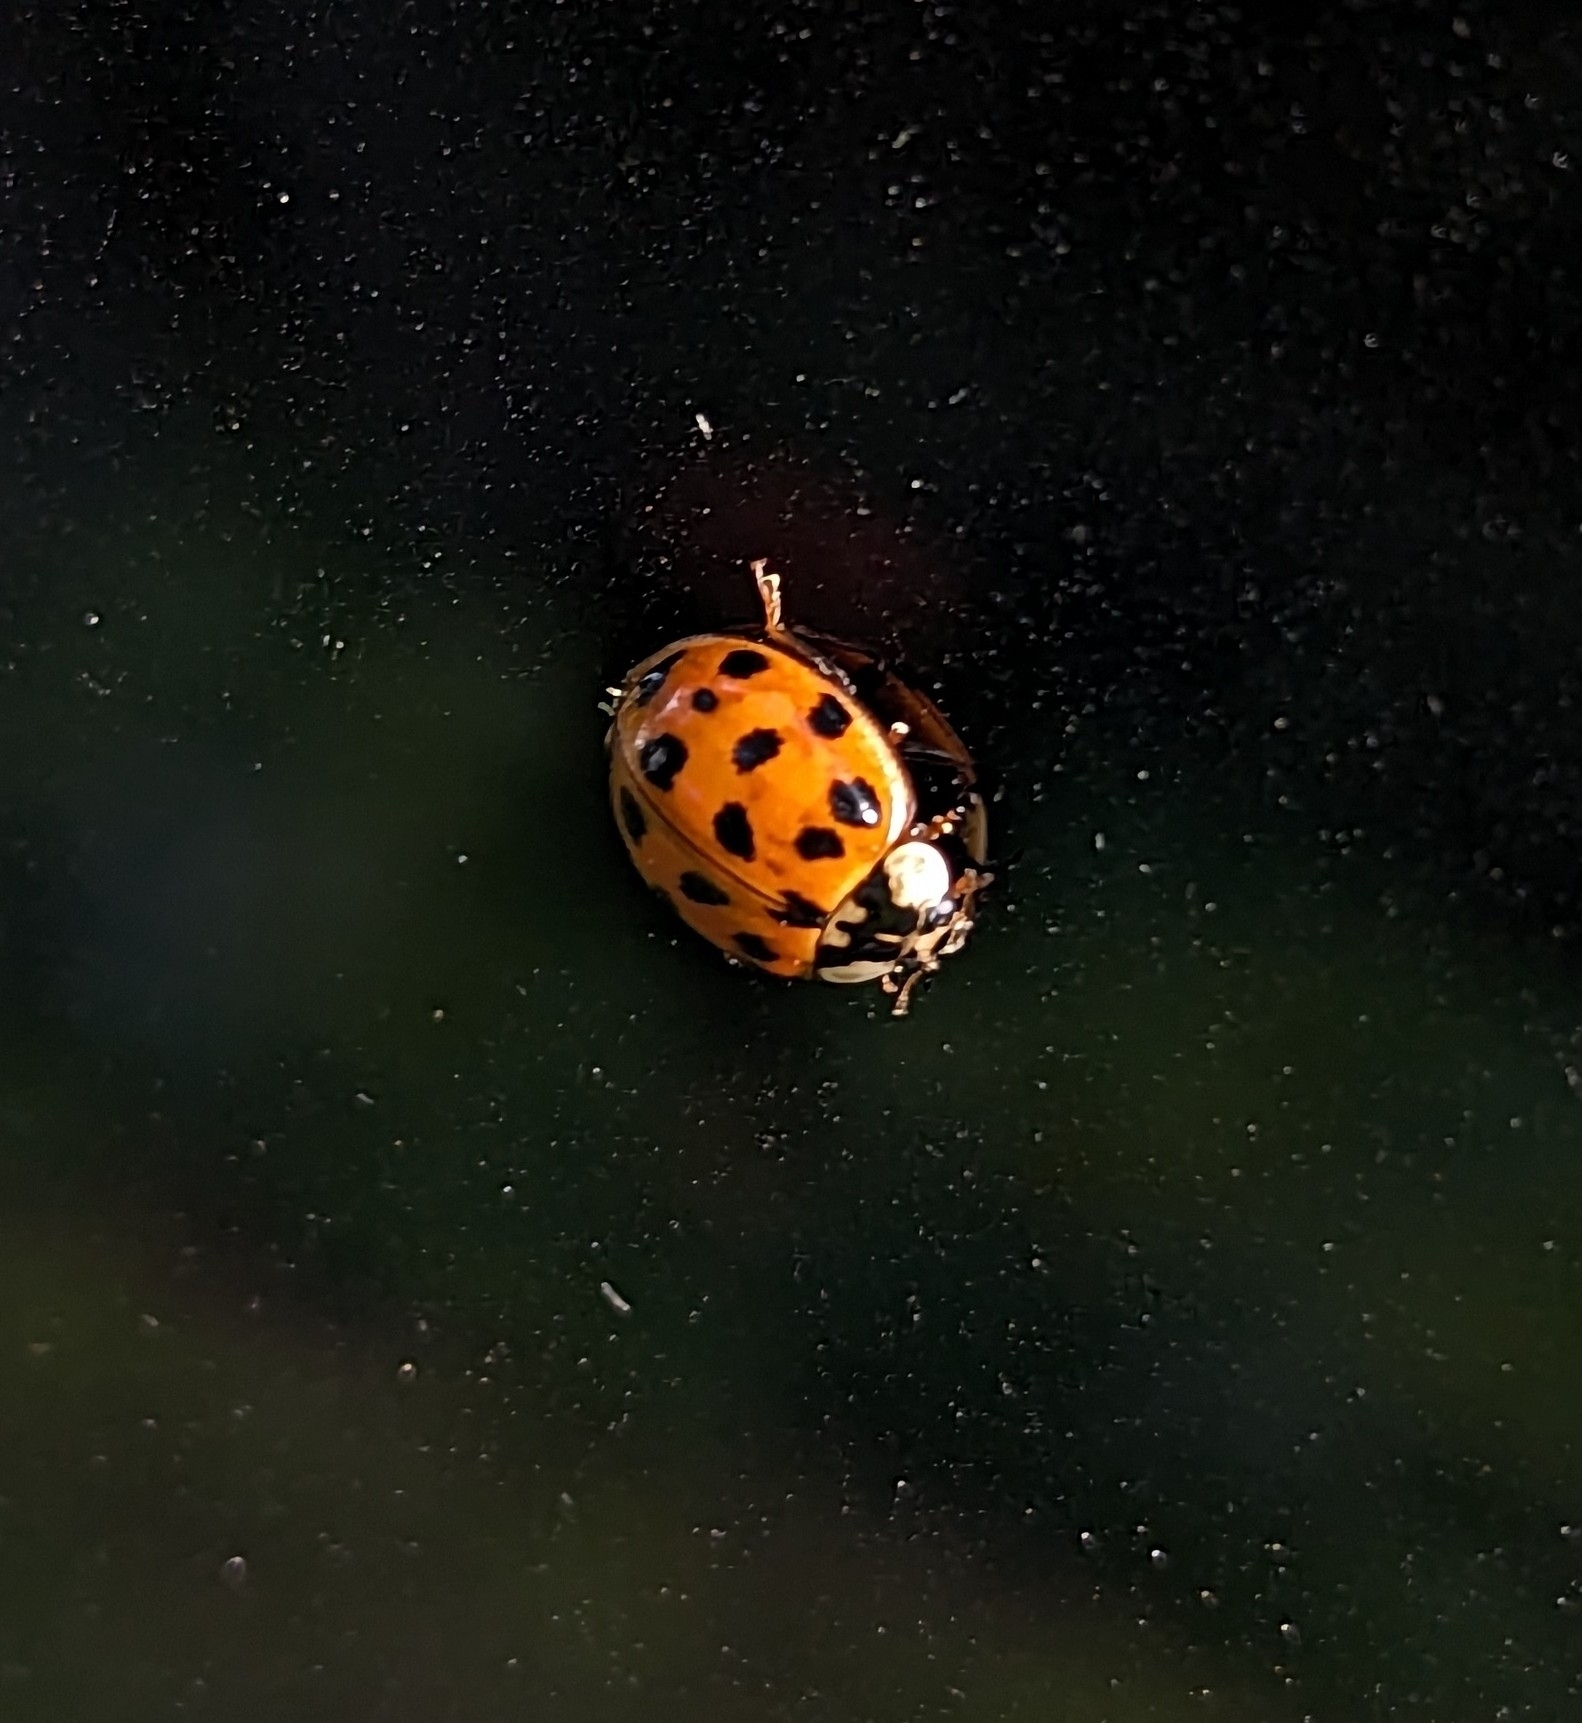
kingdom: Animalia
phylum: Arthropoda
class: Insecta
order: Coleoptera
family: Coccinellidae
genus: Harmonia
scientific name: Harmonia axyridis
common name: Harlequin ladybird
